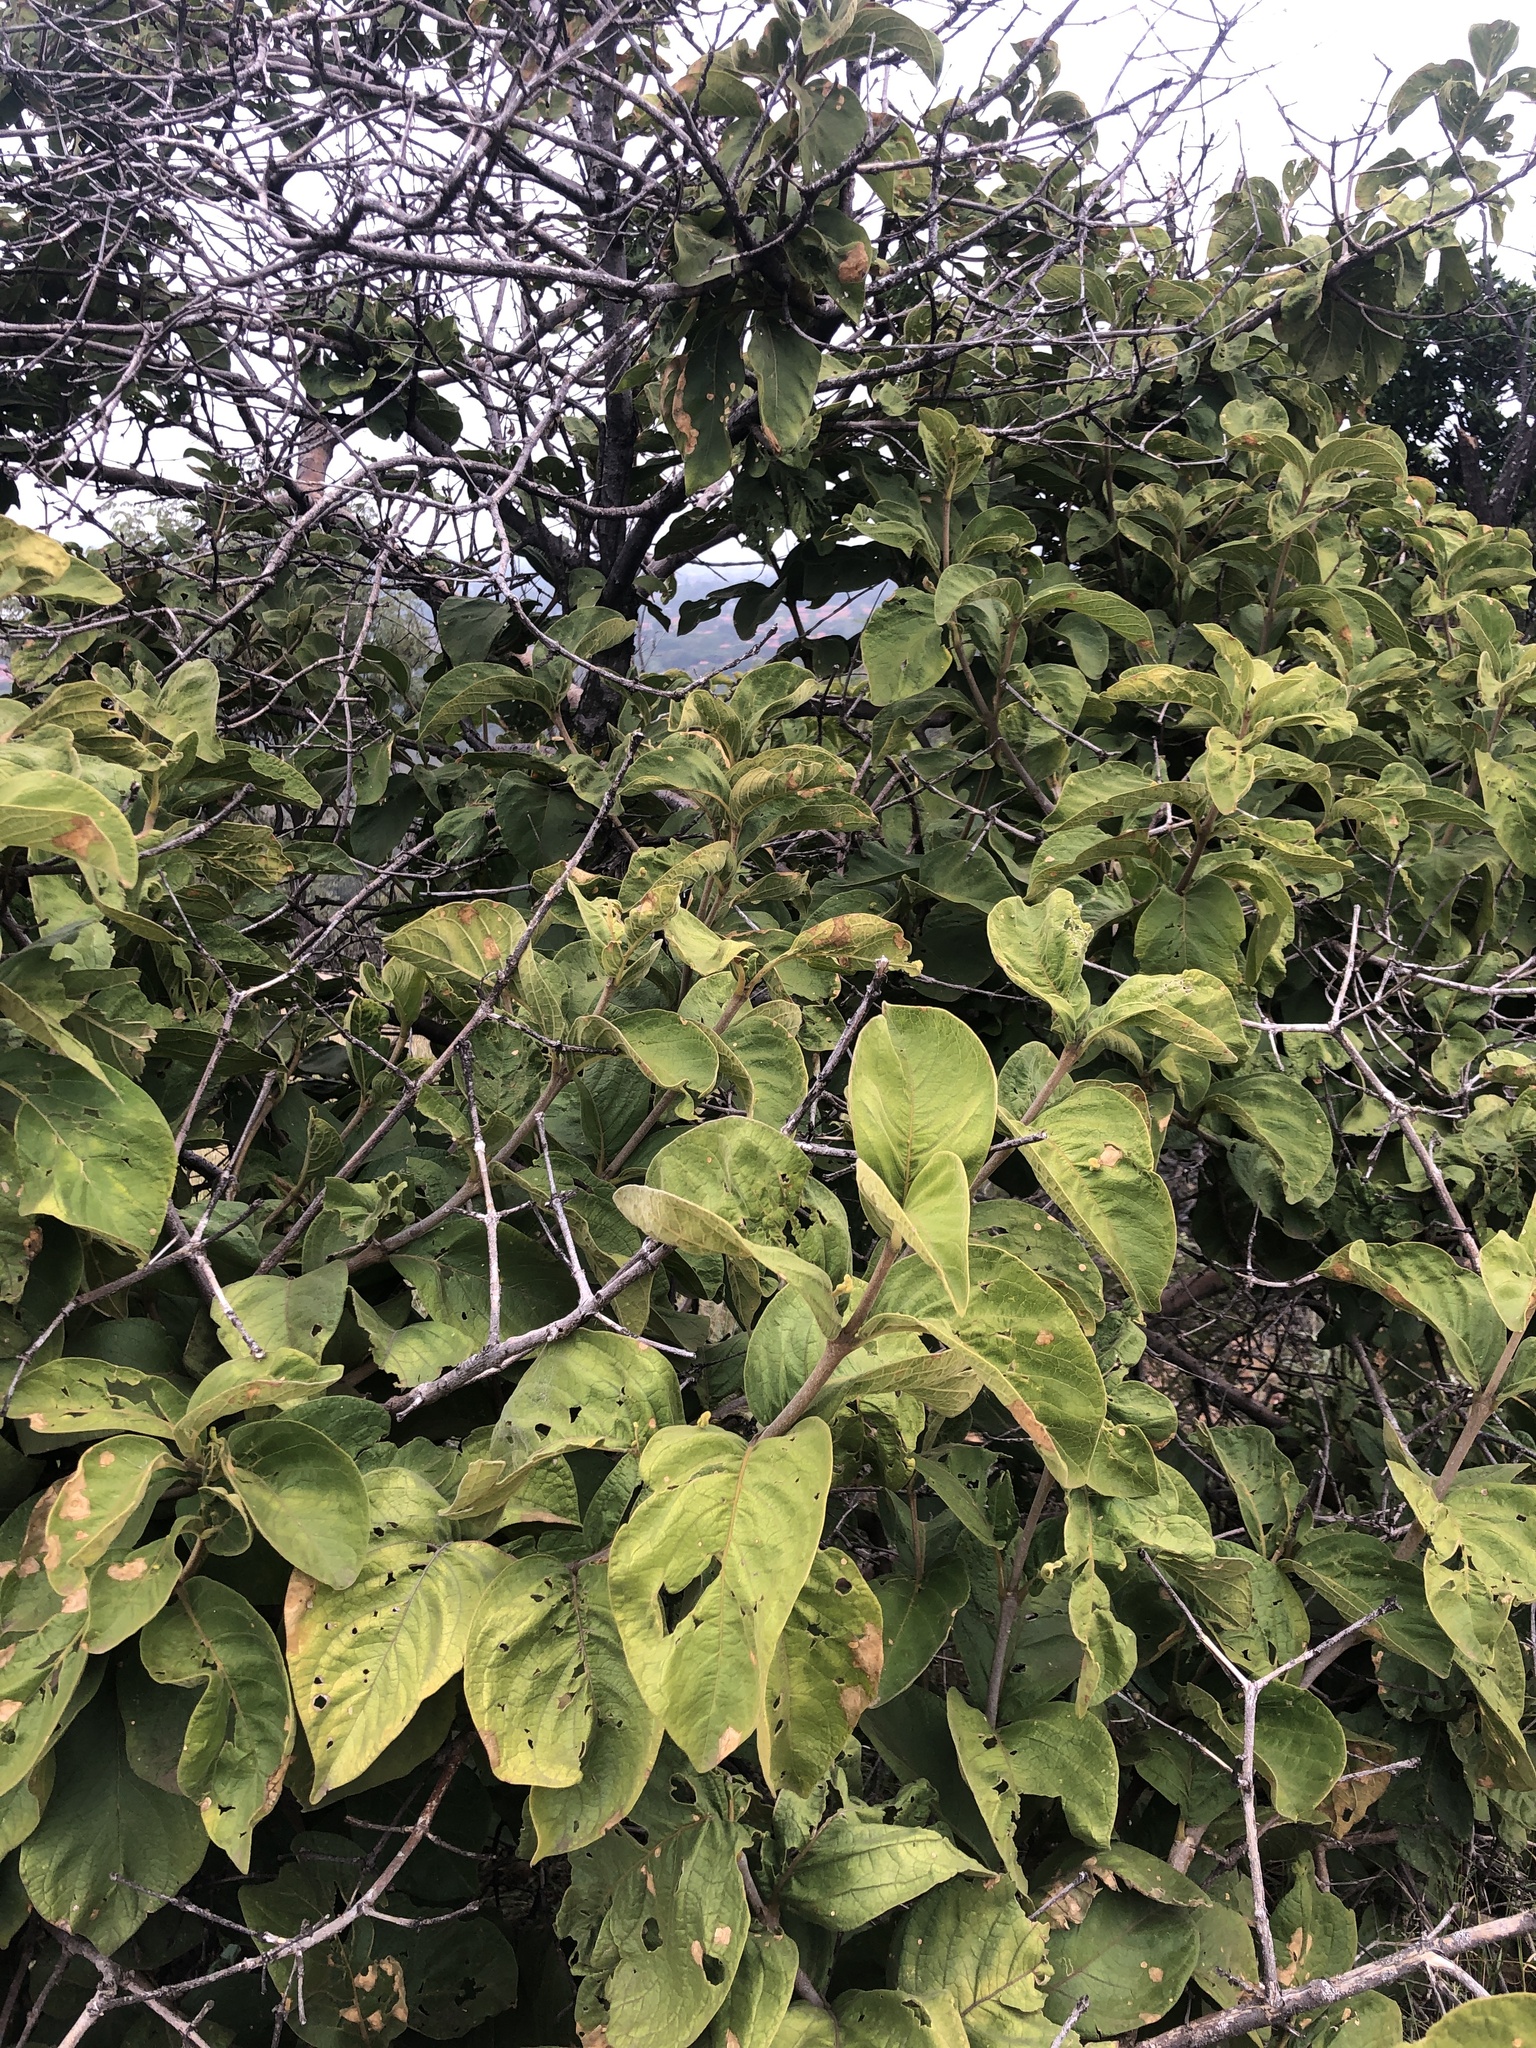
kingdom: Plantae
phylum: Tracheophyta
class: Magnoliopsida
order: Gentianales
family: Rubiaceae
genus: Vangueria
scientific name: Vangueria infausta
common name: Medlar
